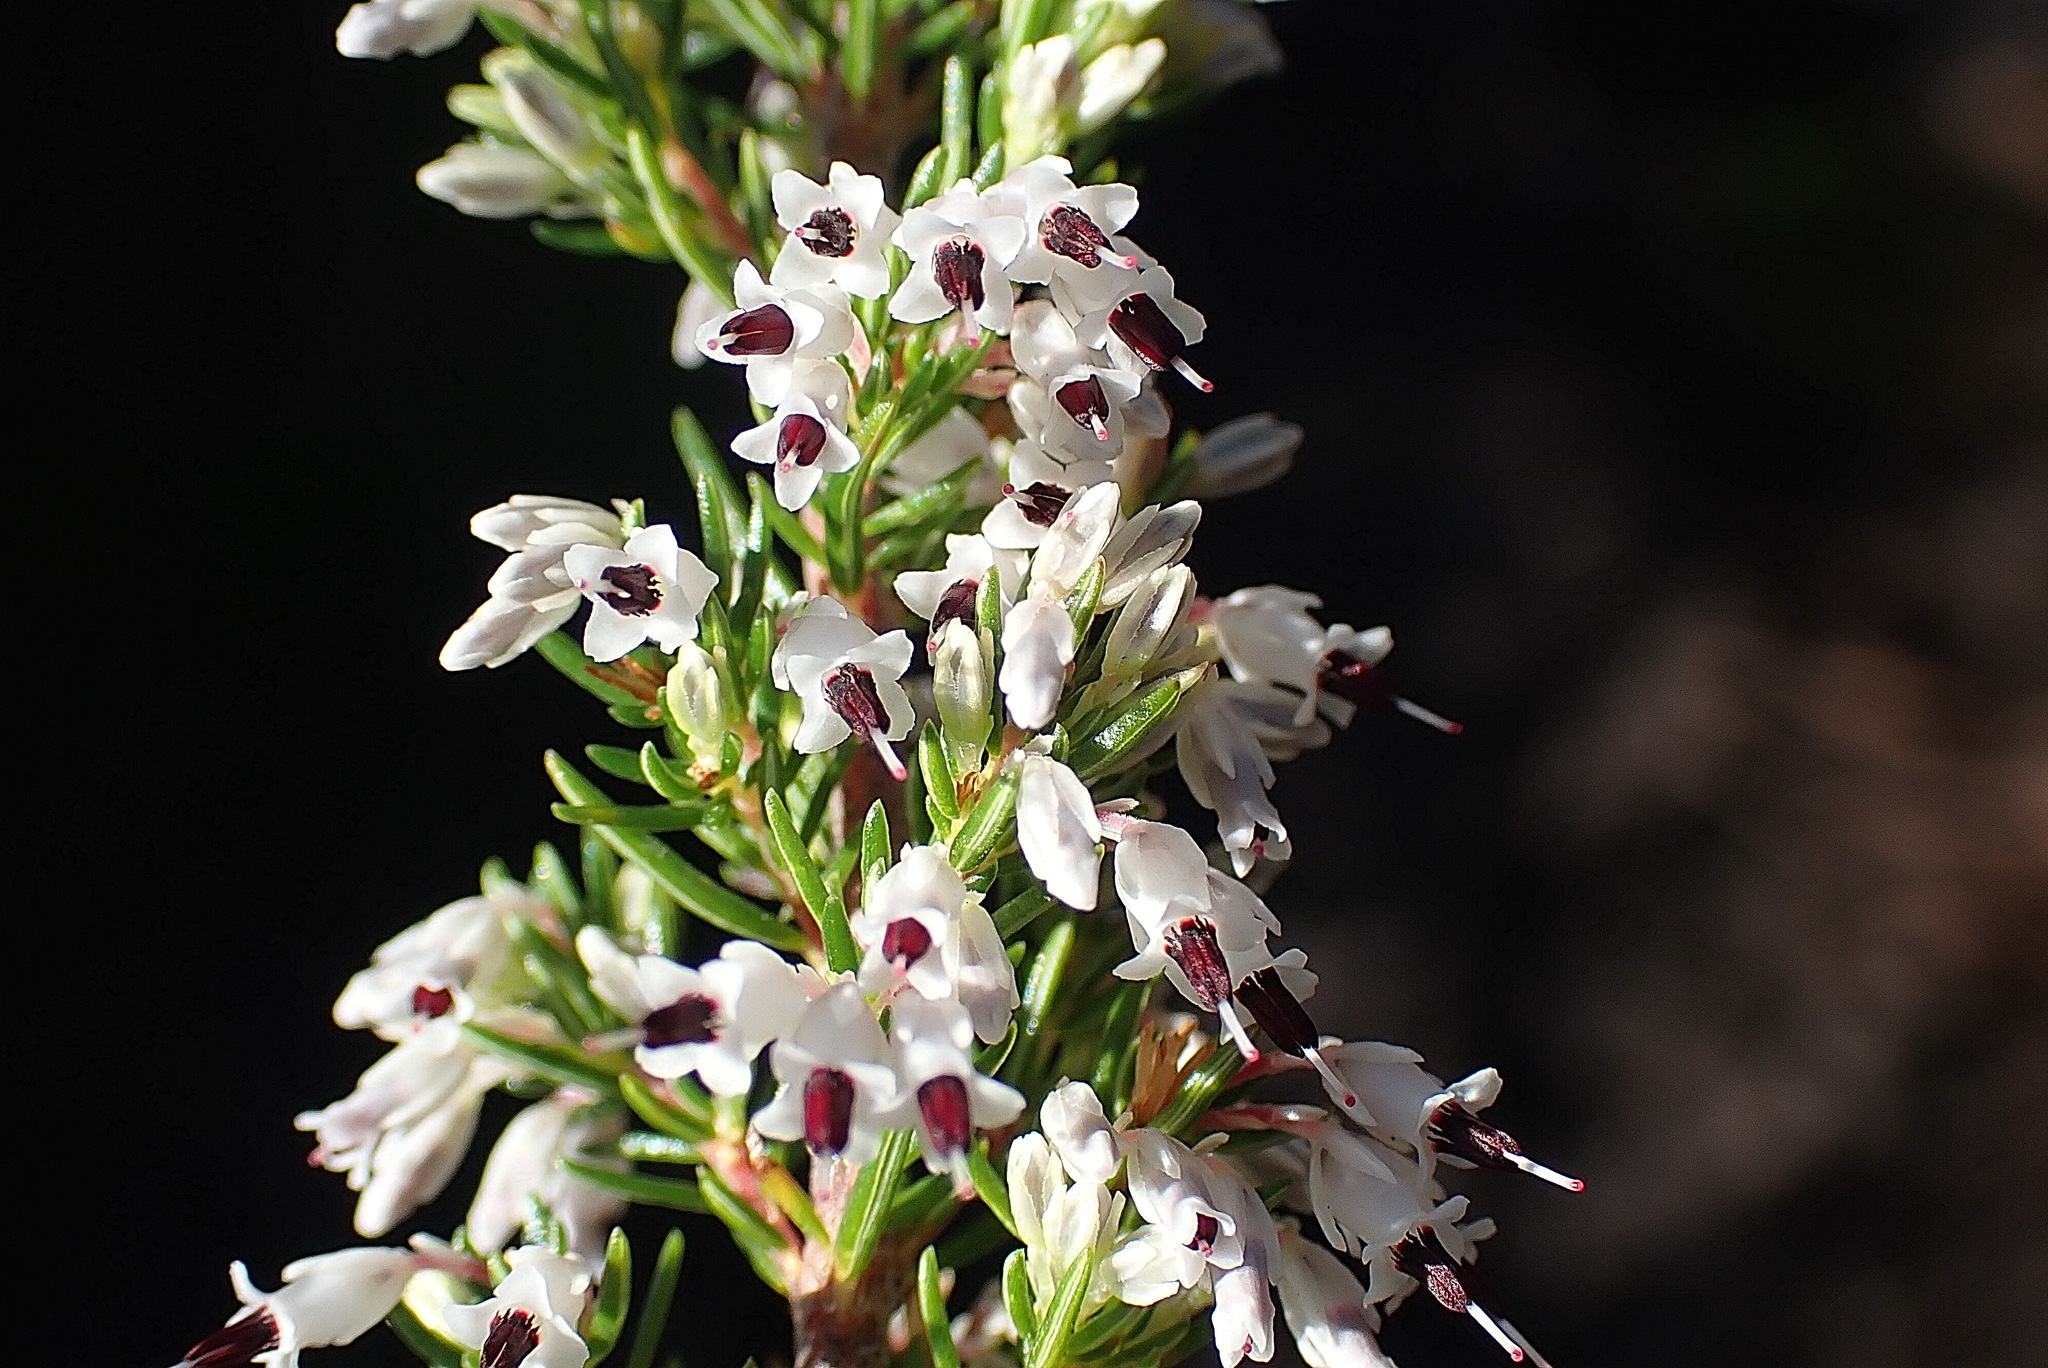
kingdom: Plantae
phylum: Tracheophyta
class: Magnoliopsida
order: Ericales
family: Ericaceae
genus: Erica
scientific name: Erica fuscescens
